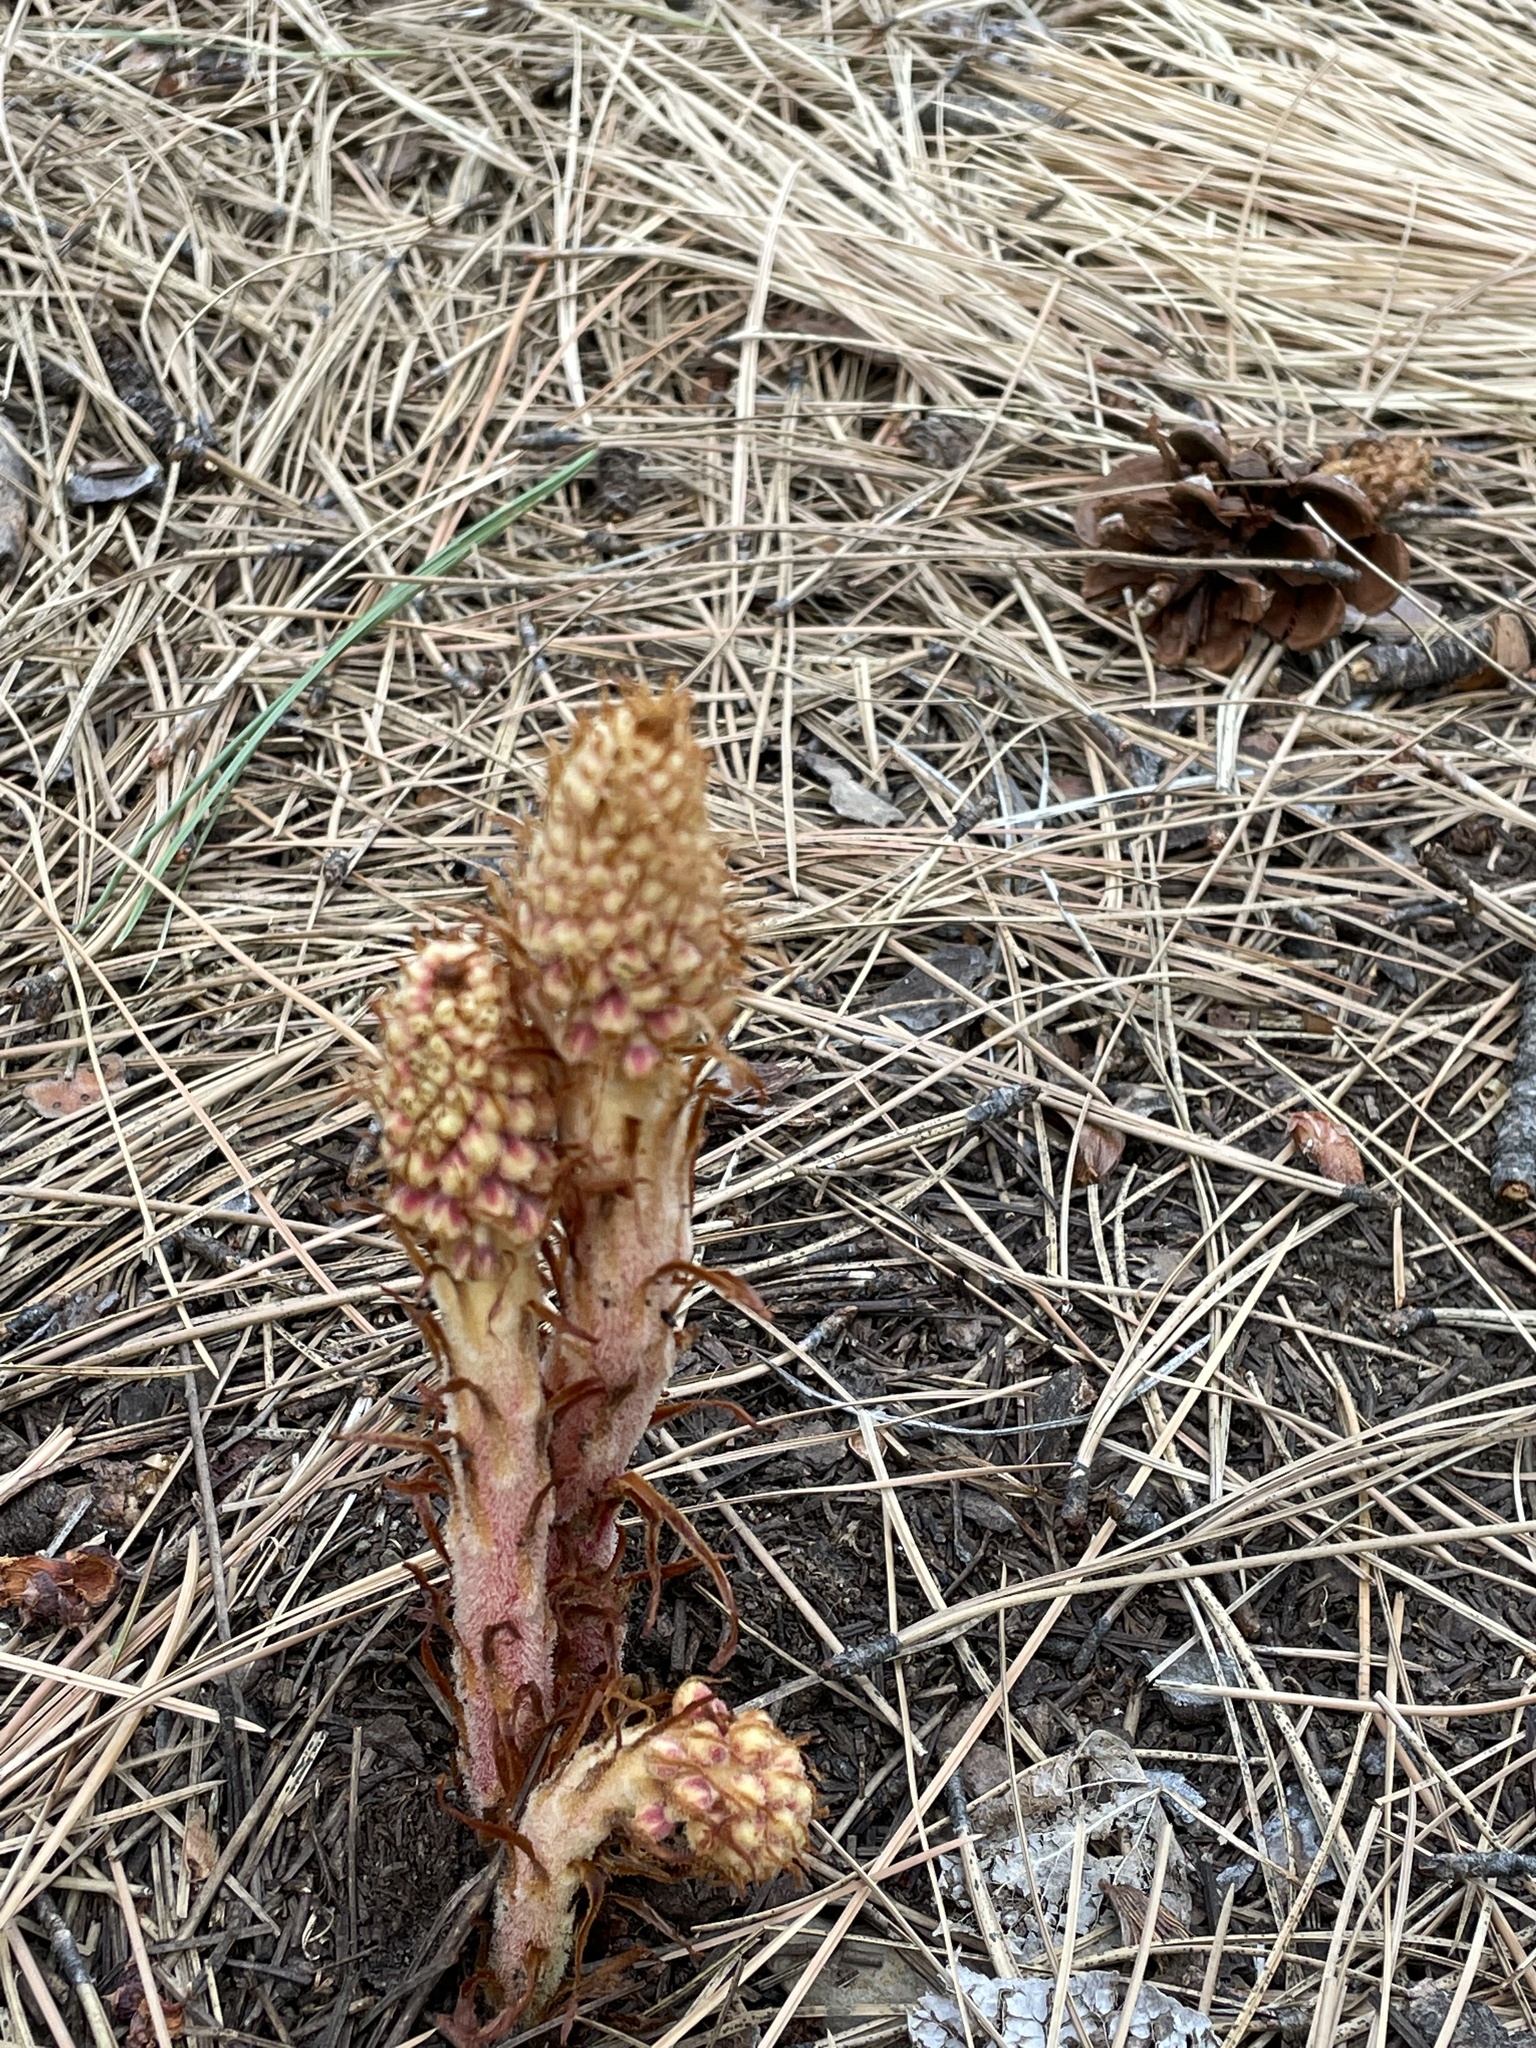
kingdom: Plantae
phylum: Tracheophyta
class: Magnoliopsida
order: Ericales
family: Ericaceae
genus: Pterospora
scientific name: Pterospora andromedea
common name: Giant bird's-nest
